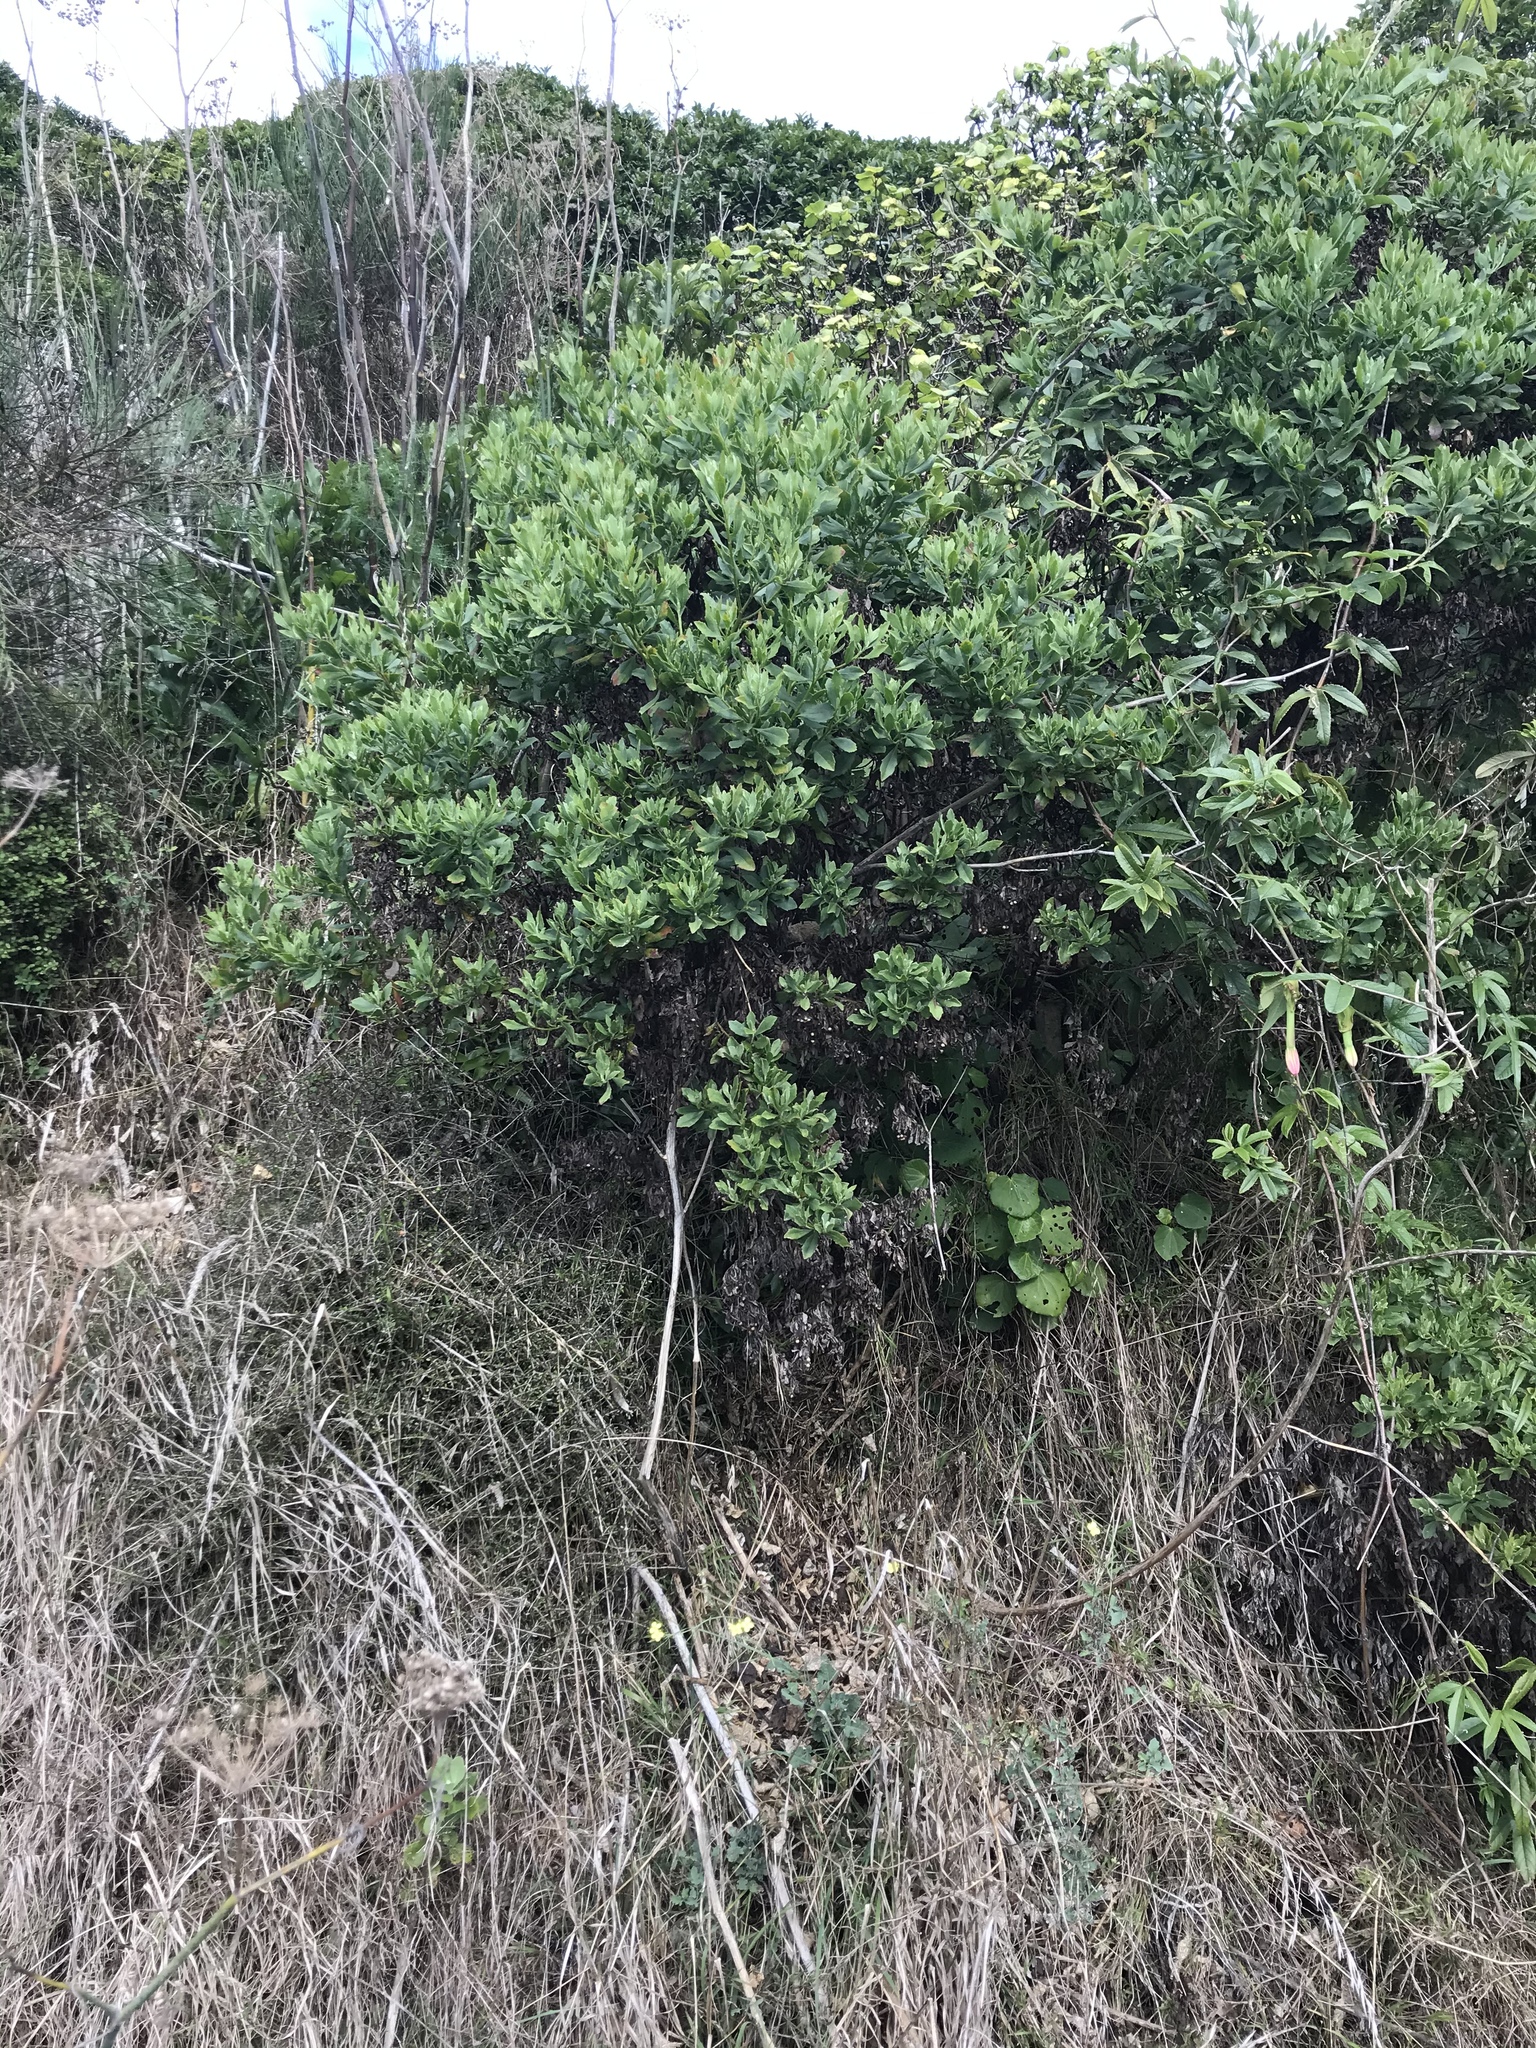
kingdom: Plantae
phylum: Tracheophyta
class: Magnoliopsida
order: Asterales
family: Asteraceae
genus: Osteospermum
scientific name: Osteospermum moniliferum
